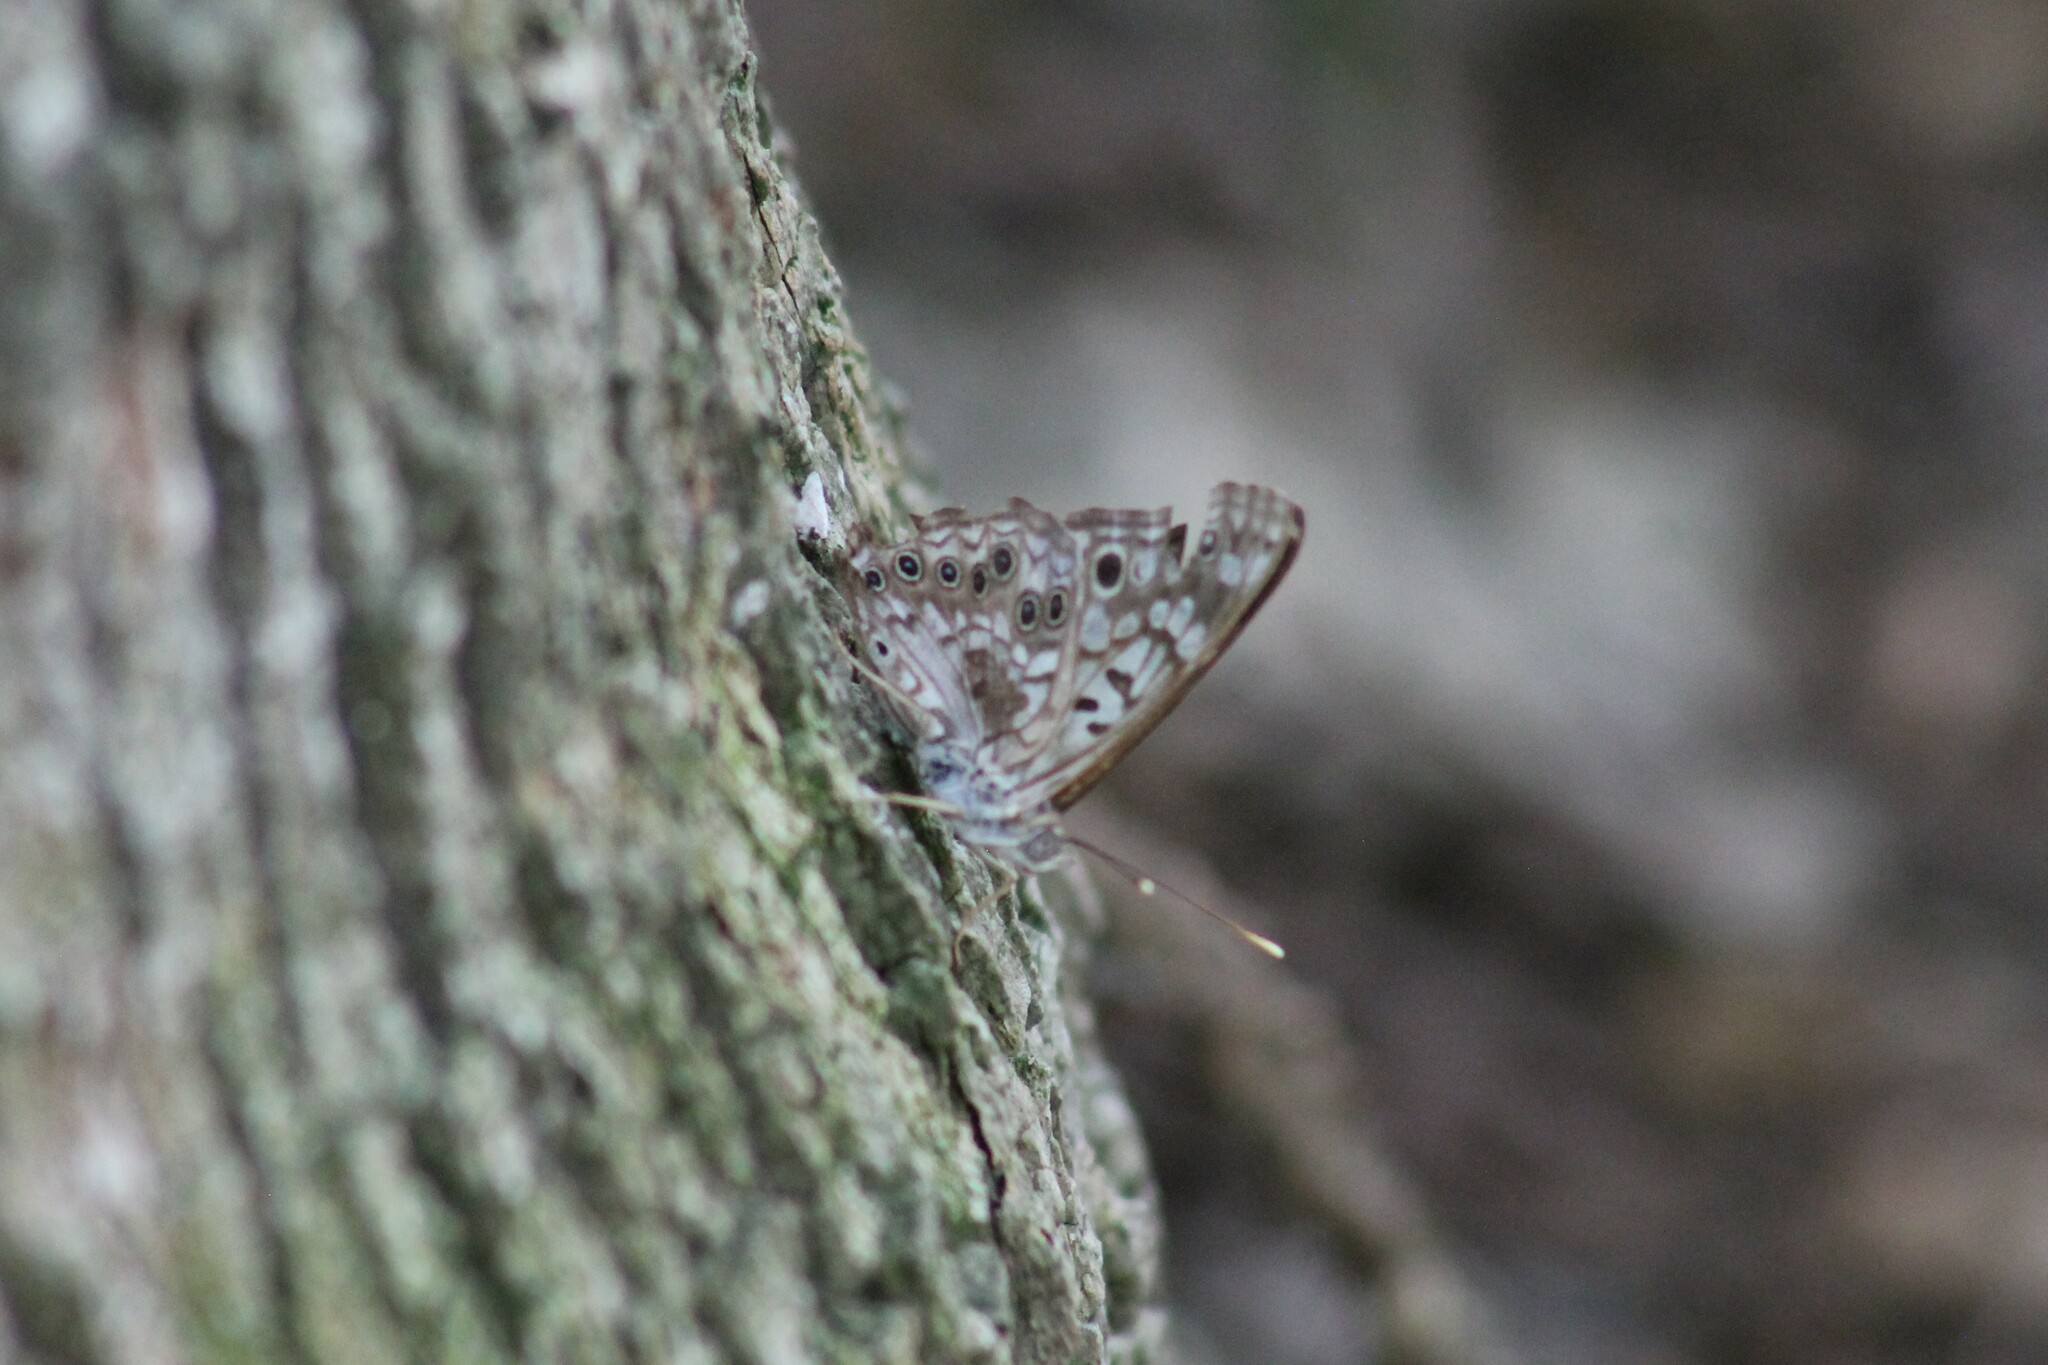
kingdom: Animalia
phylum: Arthropoda
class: Insecta
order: Lepidoptera
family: Nymphalidae
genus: Asterocampa
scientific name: Asterocampa celtis
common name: Hackberry emperor
